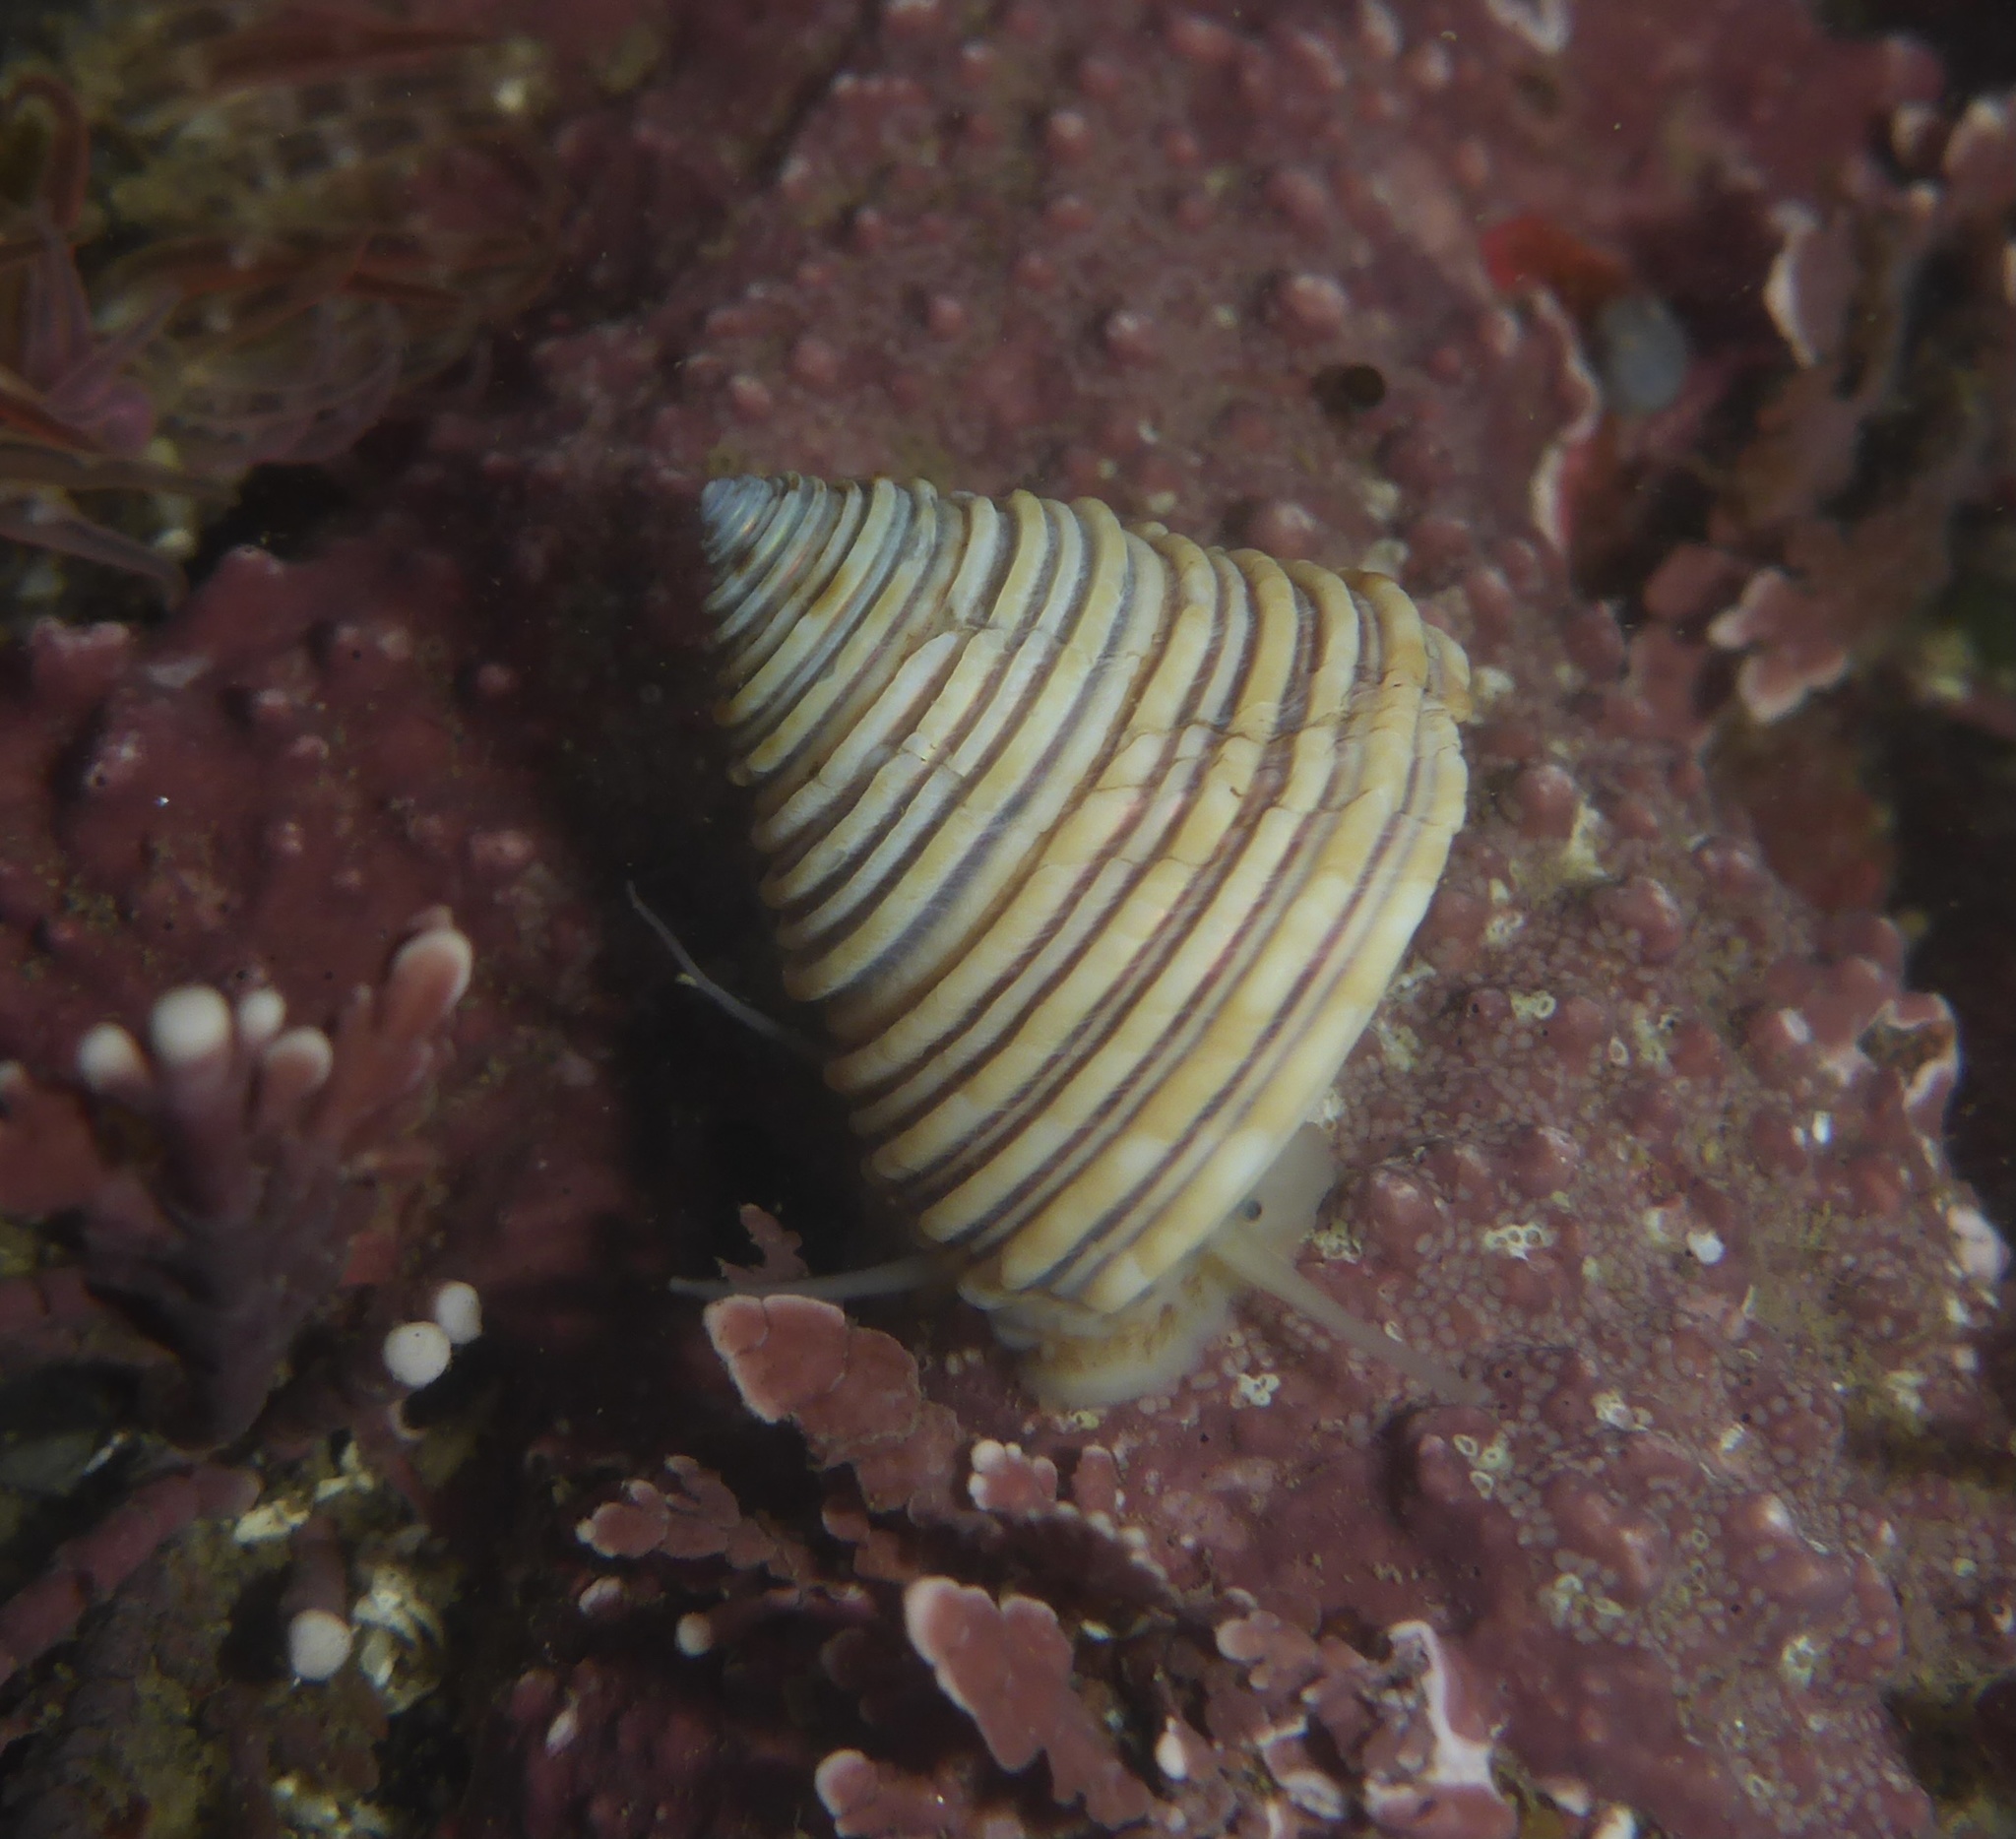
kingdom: Animalia
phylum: Mollusca
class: Gastropoda
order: Trochida
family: Calliostomatidae
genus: Calliostoma
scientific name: Calliostoma canaliculatum
